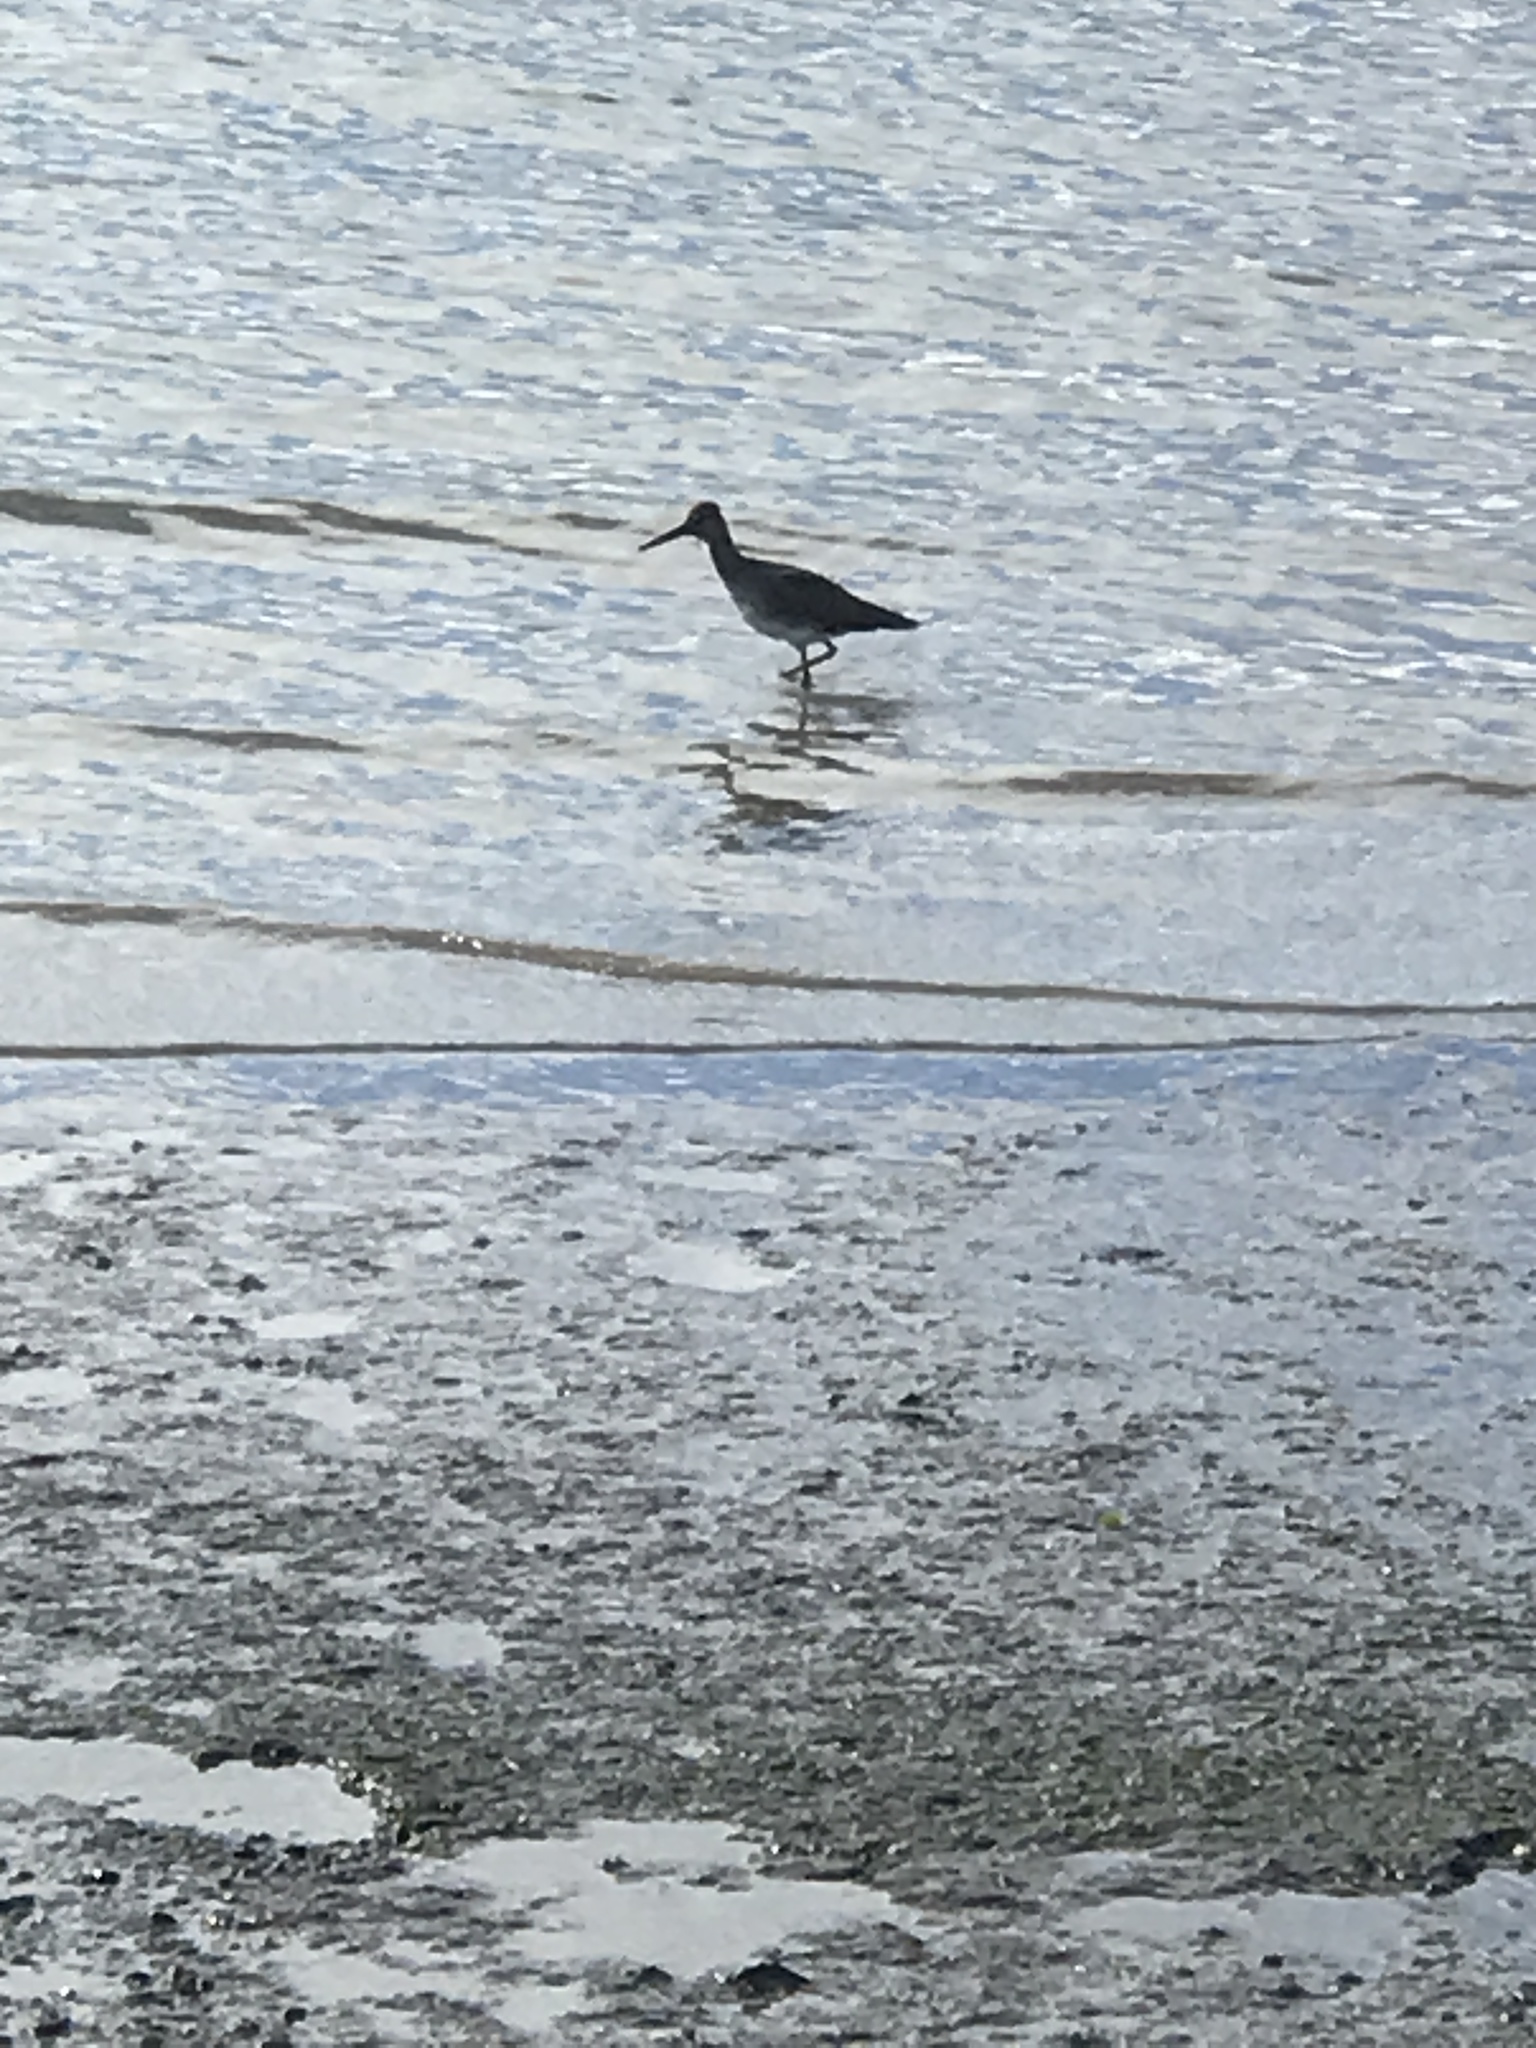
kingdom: Animalia
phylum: Chordata
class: Aves
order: Charadriiformes
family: Scolopacidae
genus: Tringa
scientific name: Tringa semipalmata
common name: Willet
